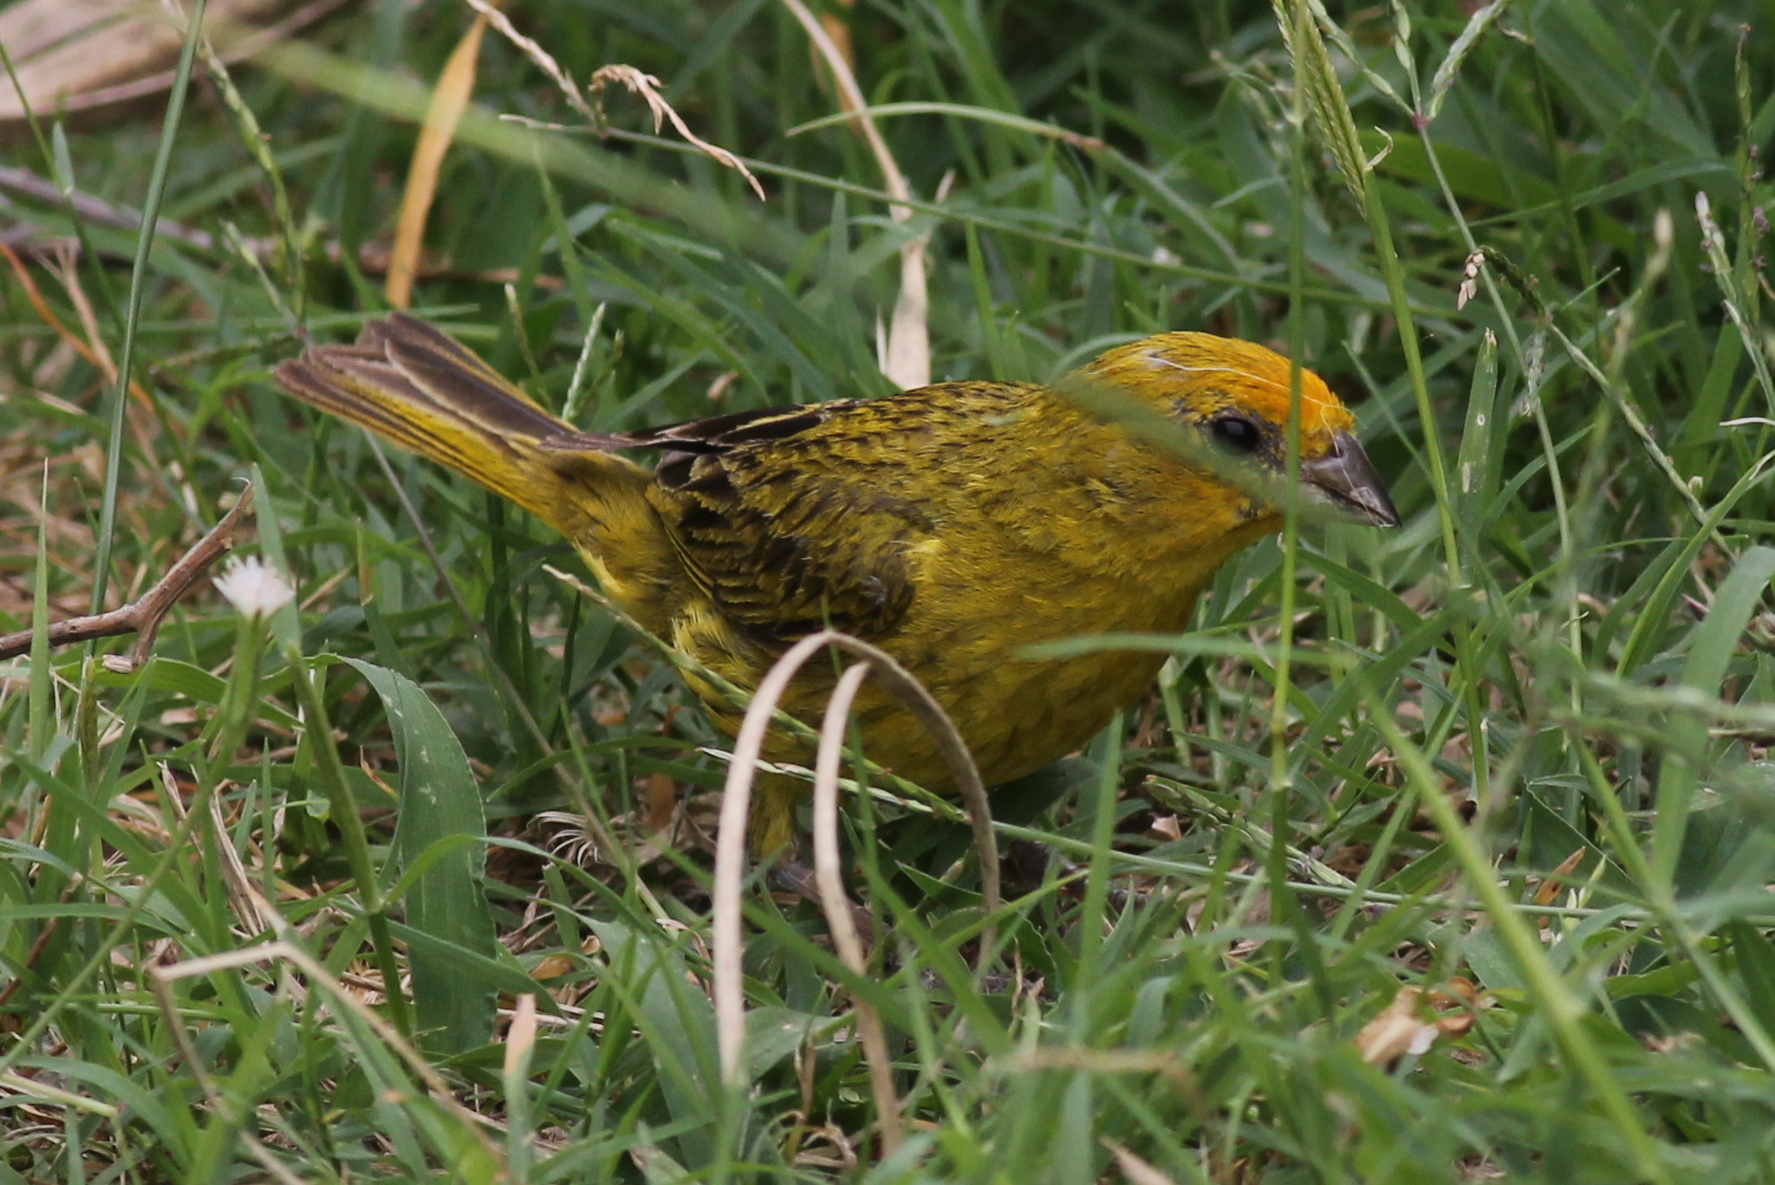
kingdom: Animalia
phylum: Chordata
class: Aves
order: Passeriformes
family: Thraupidae
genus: Sicalis
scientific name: Sicalis flaveola
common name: Saffron finch
